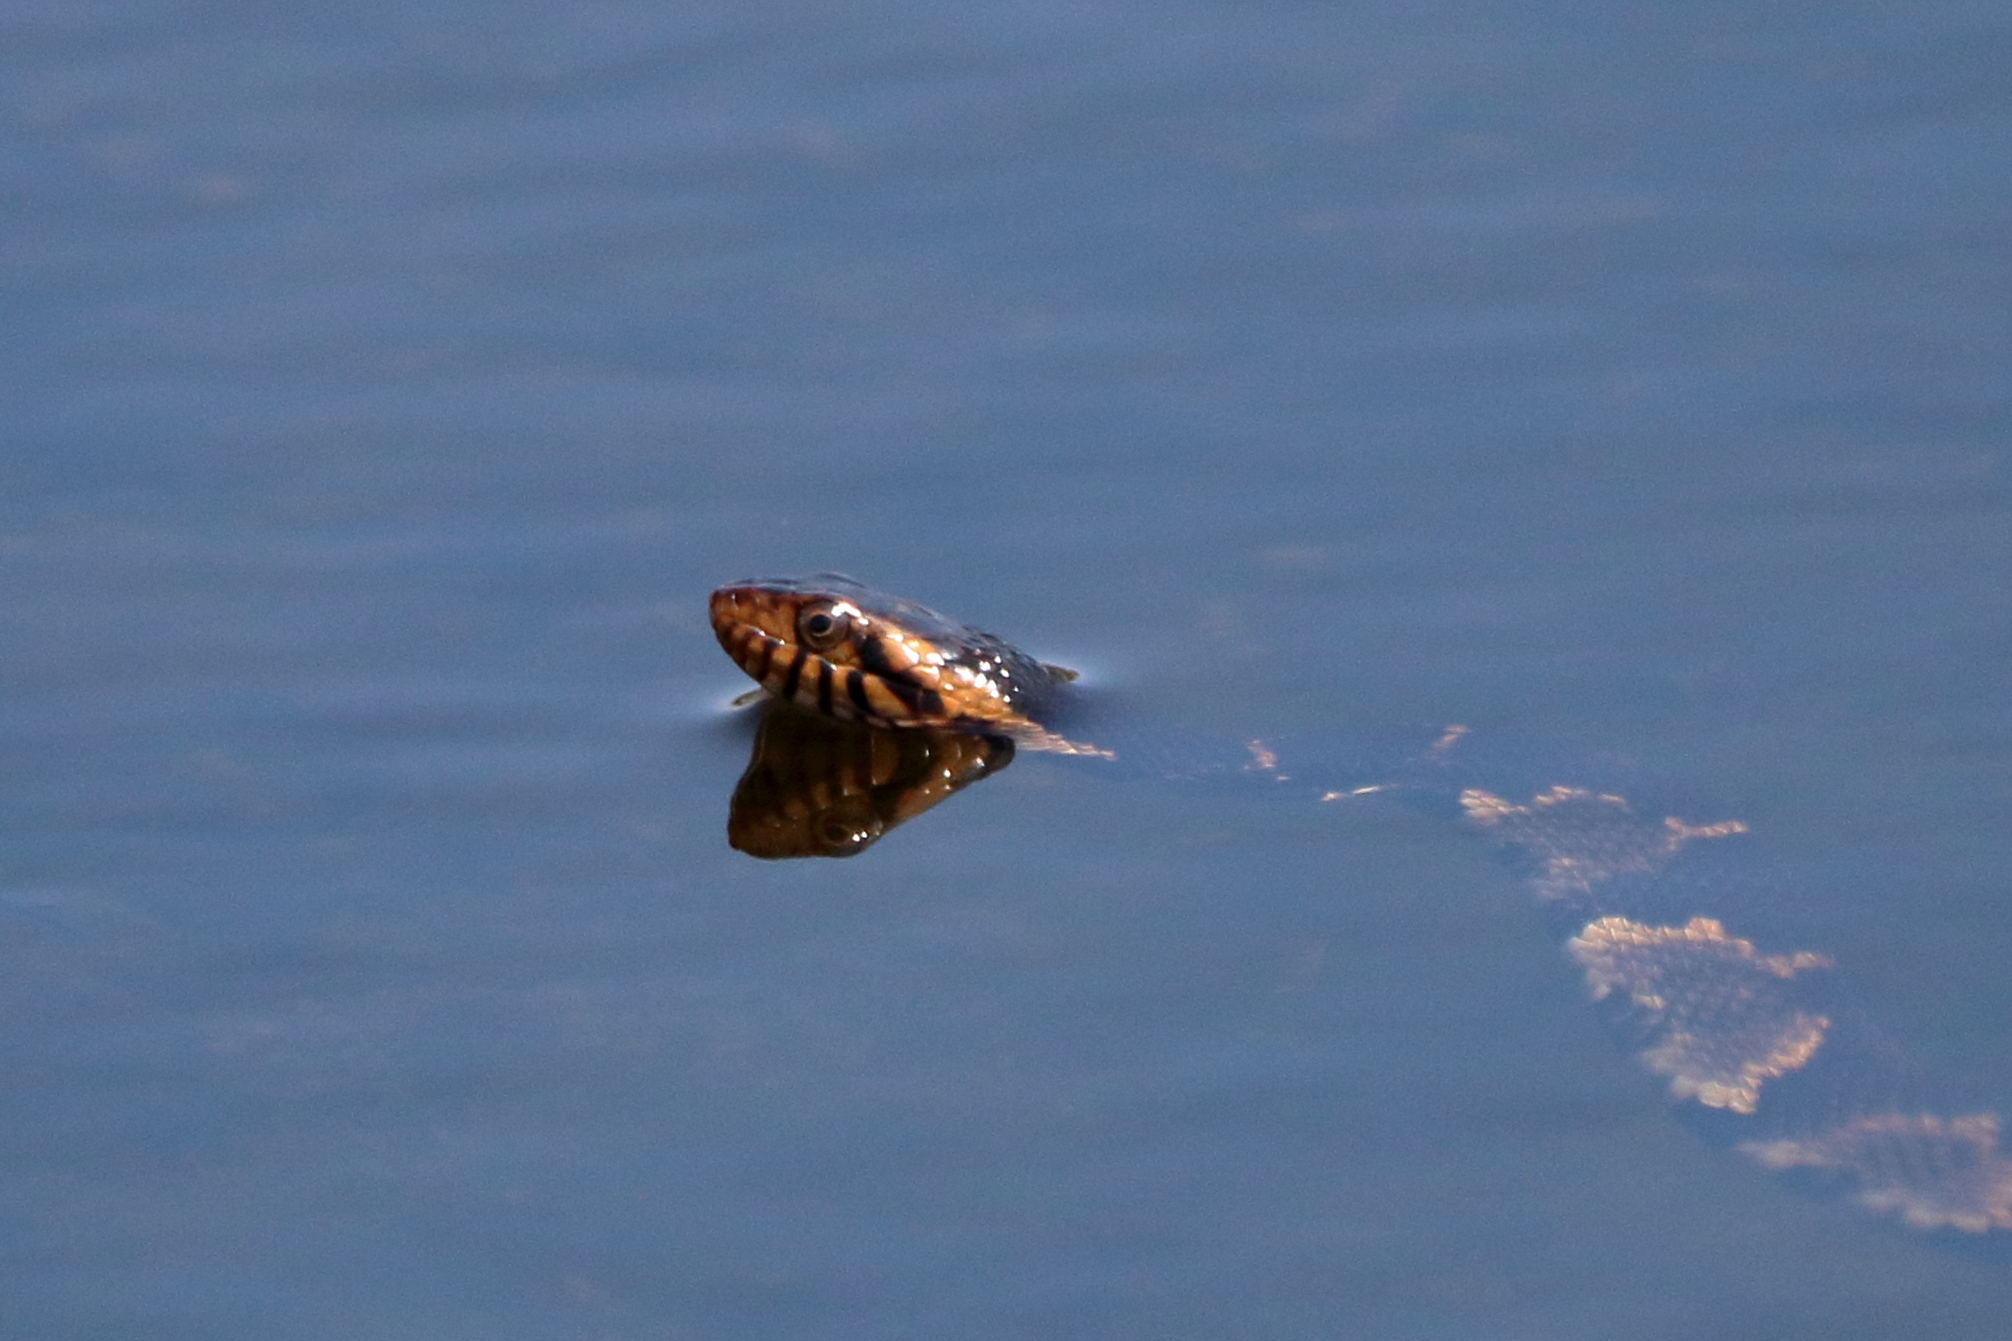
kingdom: Animalia
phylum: Chordata
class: Squamata
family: Colubridae
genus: Nerodia
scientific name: Nerodia fasciata
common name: Southern water snake
